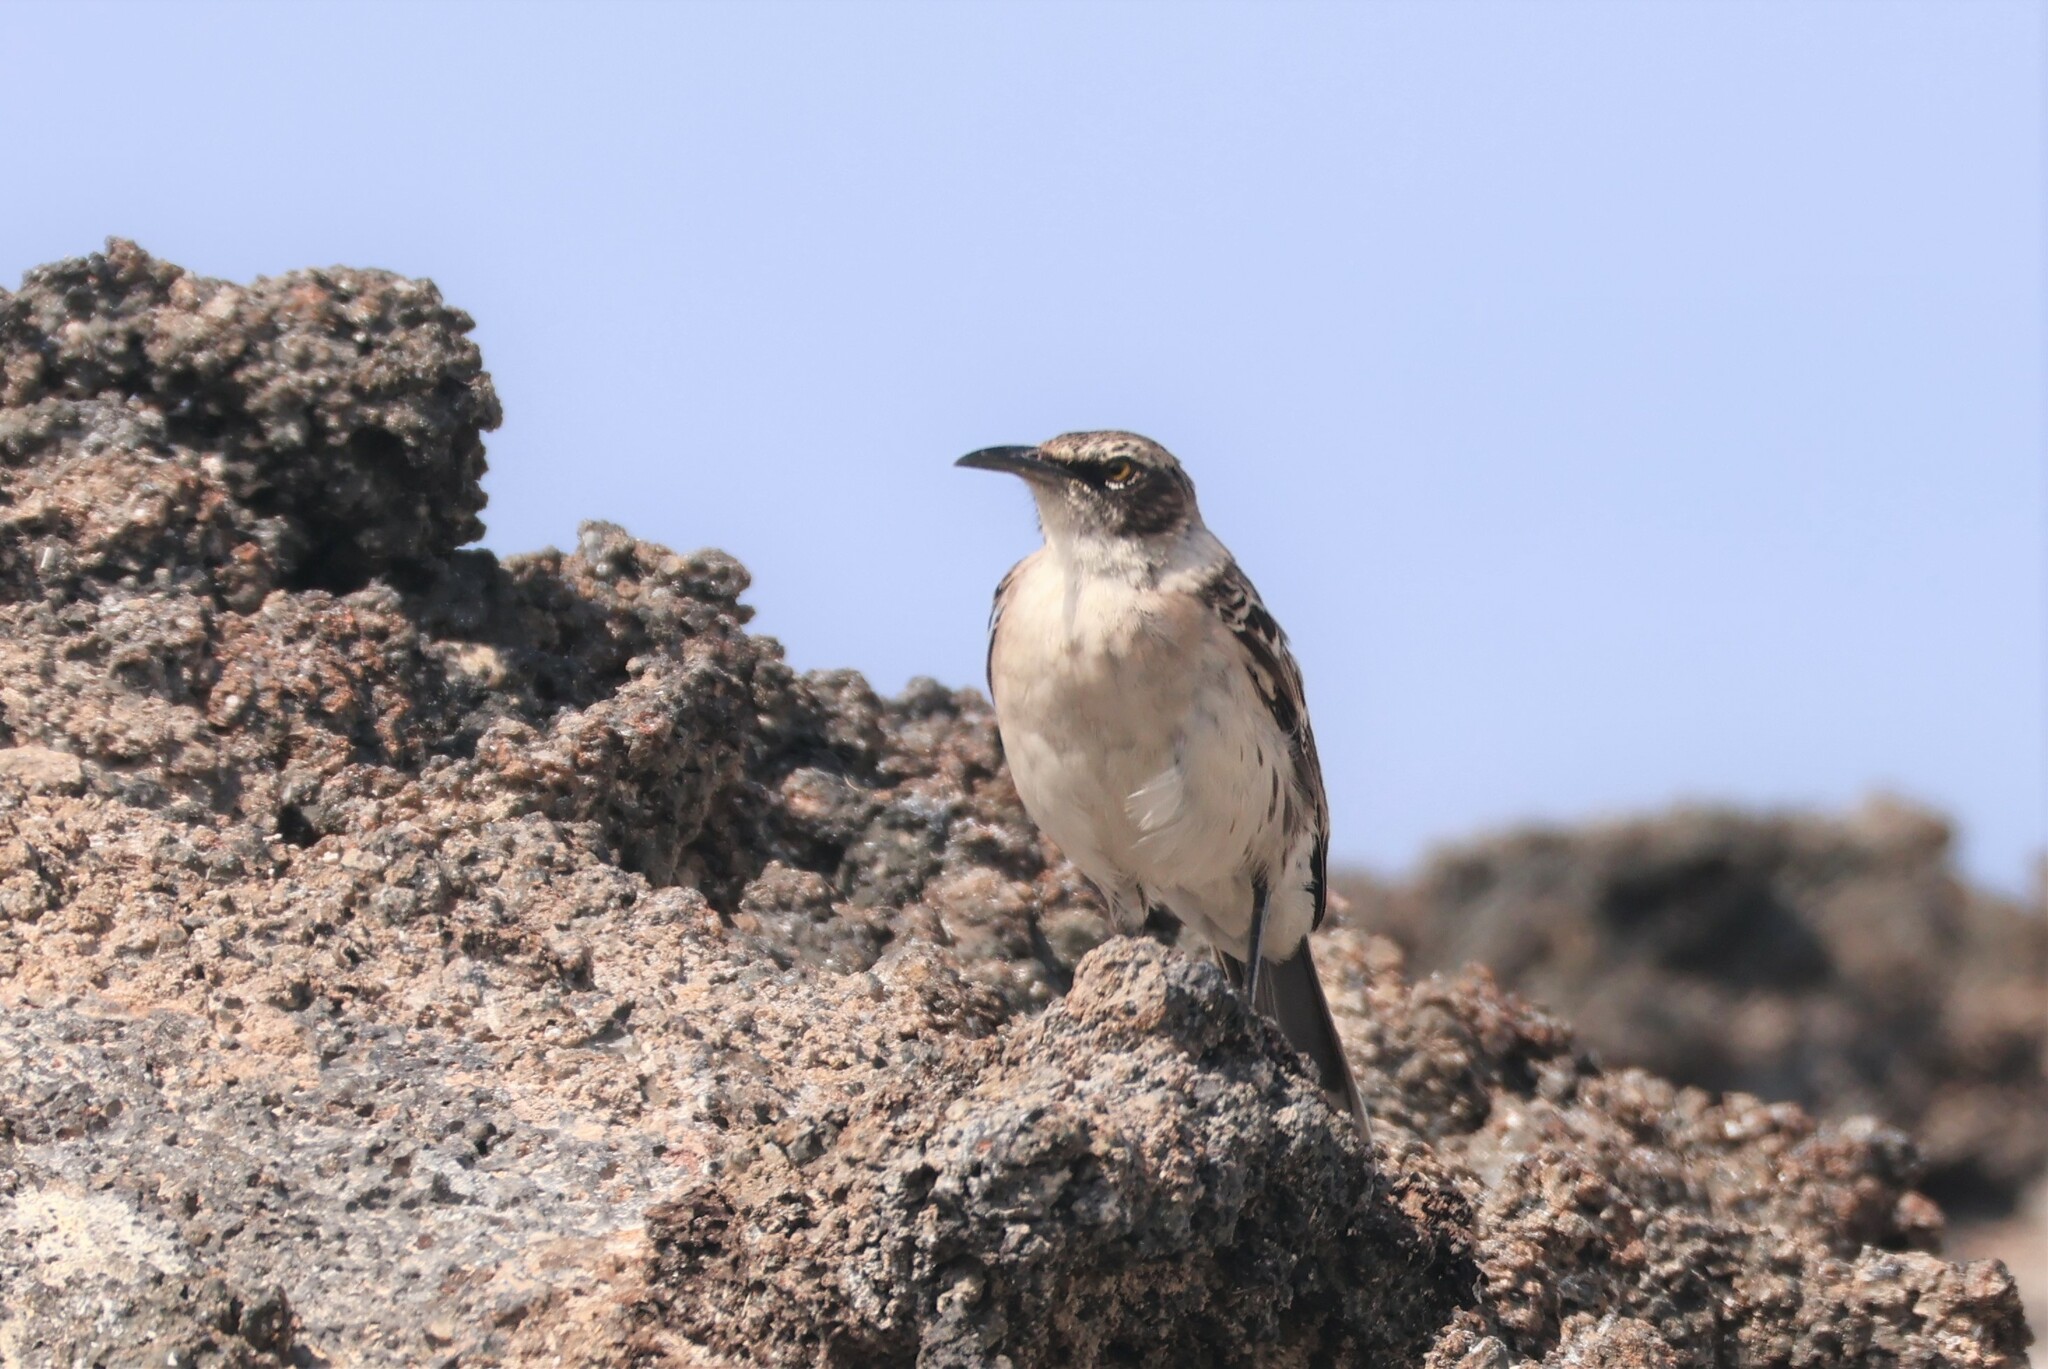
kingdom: Animalia
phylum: Chordata
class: Aves
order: Passeriformes
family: Mimidae
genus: Mimus
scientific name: Mimus parvulus
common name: Galapagos mockingbird
